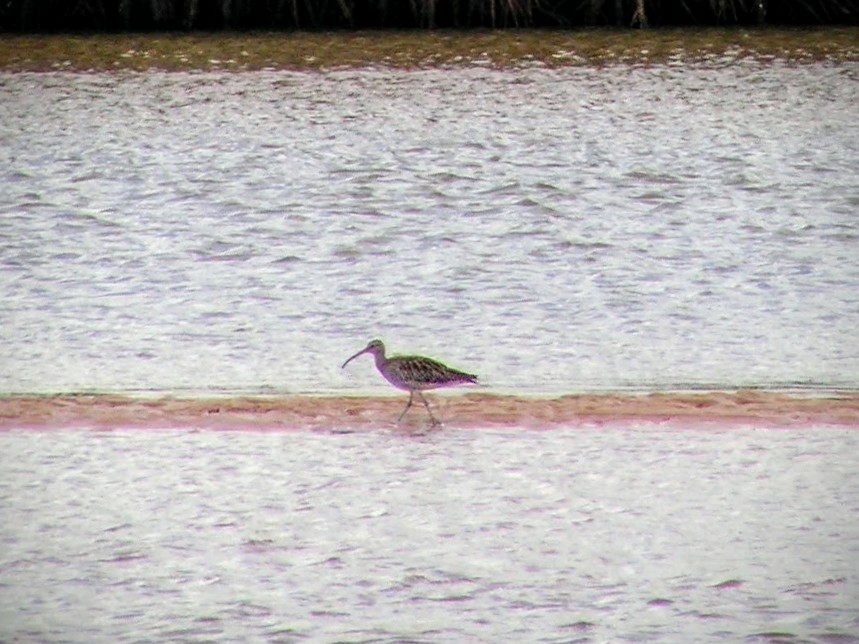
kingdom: Animalia
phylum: Chordata
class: Aves
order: Charadriiformes
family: Scolopacidae
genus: Numenius
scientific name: Numenius phaeopus
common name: Whimbrel
